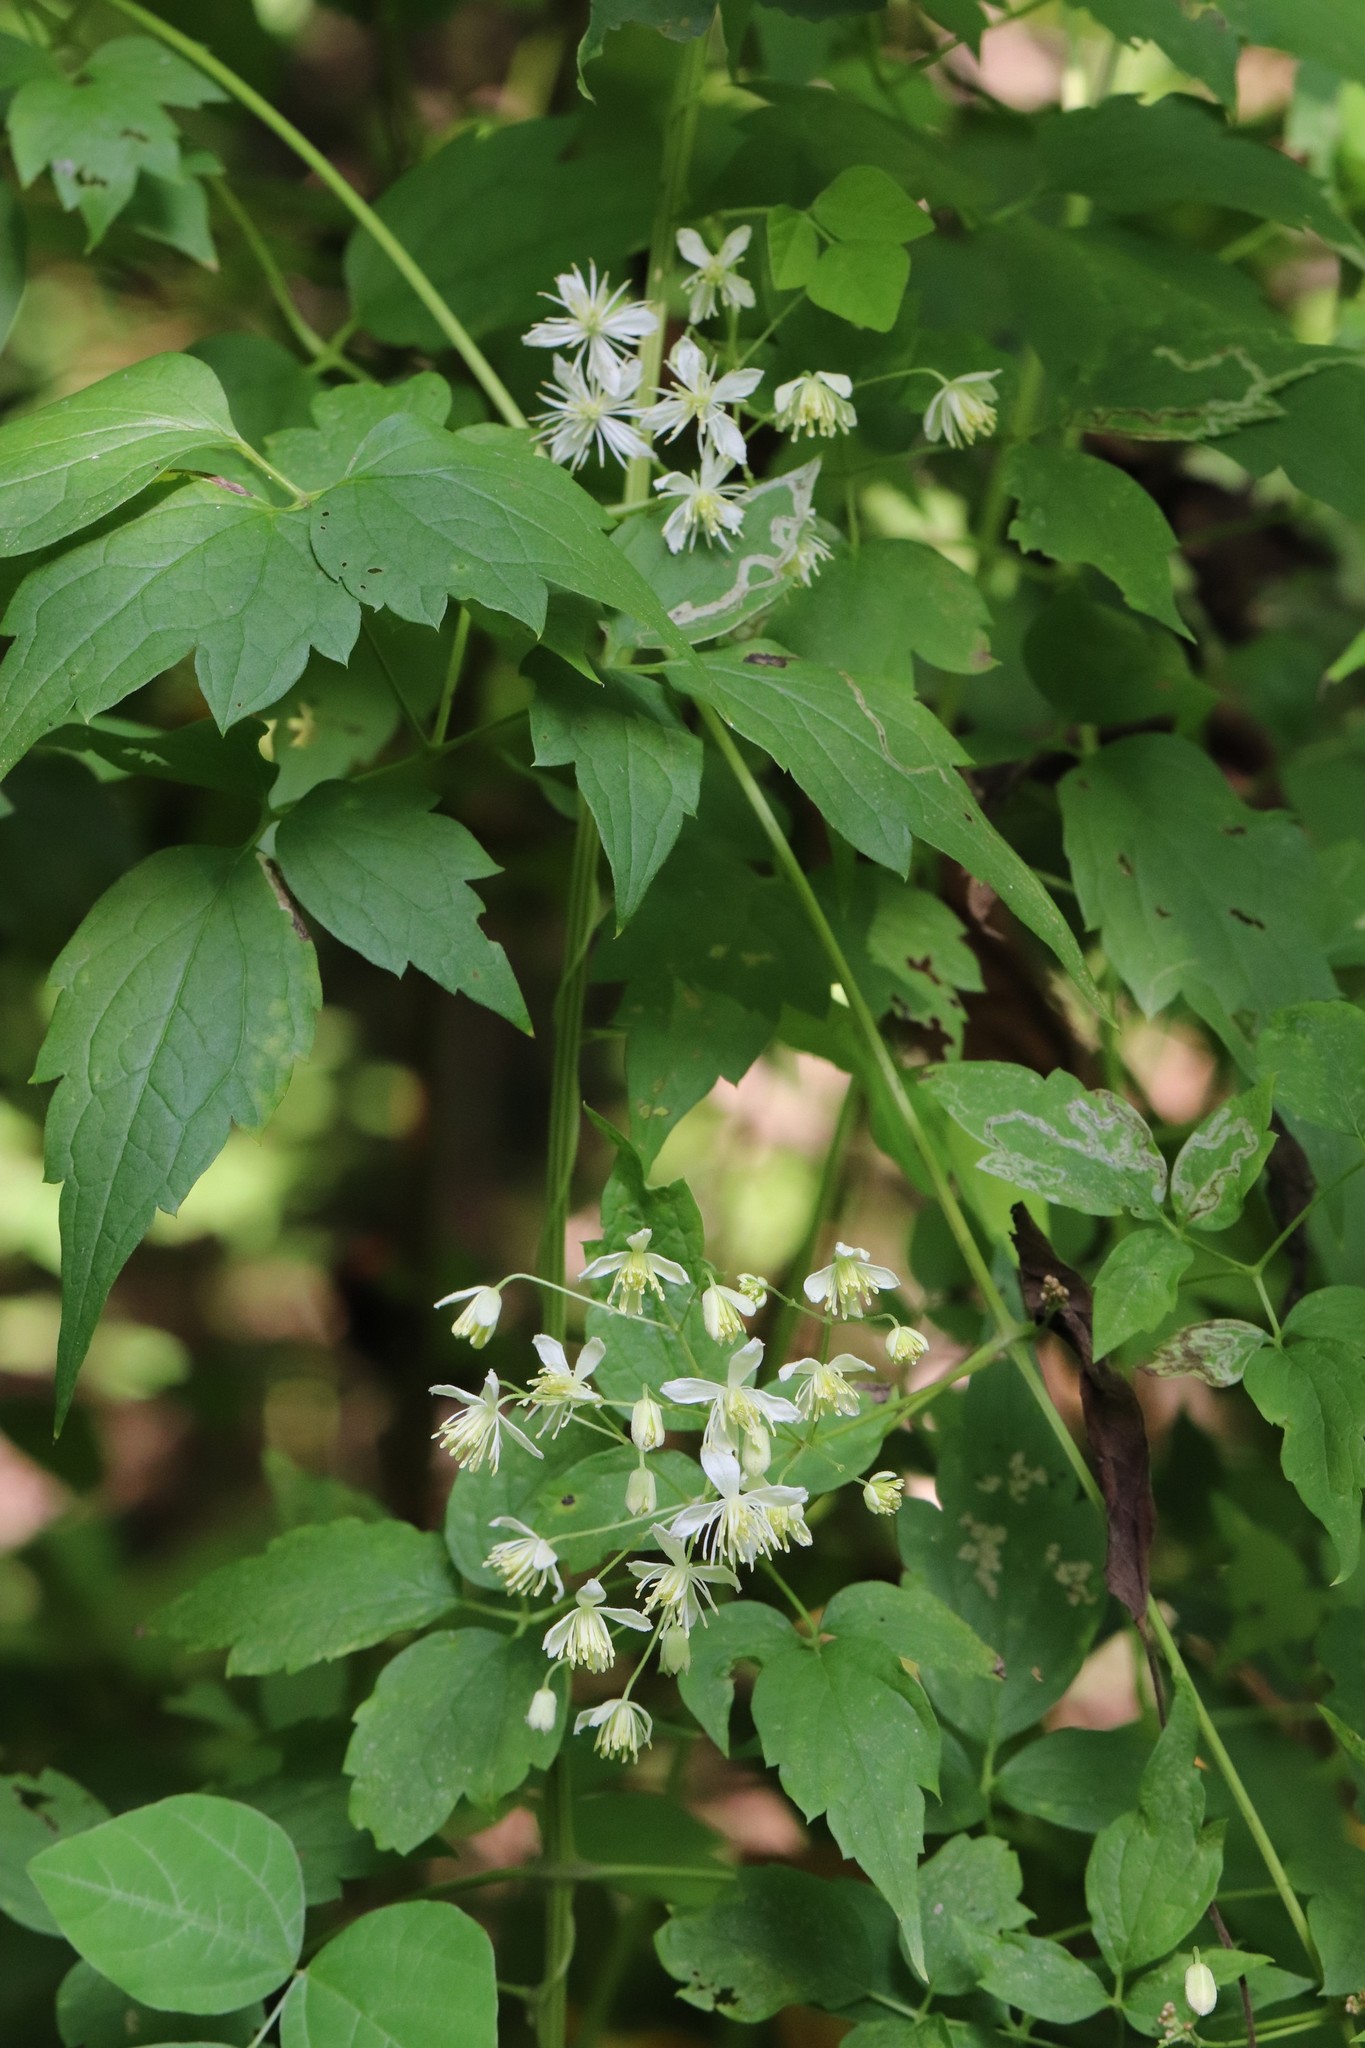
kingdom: Plantae
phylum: Tracheophyta
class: Magnoliopsida
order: Ranunculales
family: Ranunculaceae
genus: Clematis
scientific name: Clematis brevicaudata
